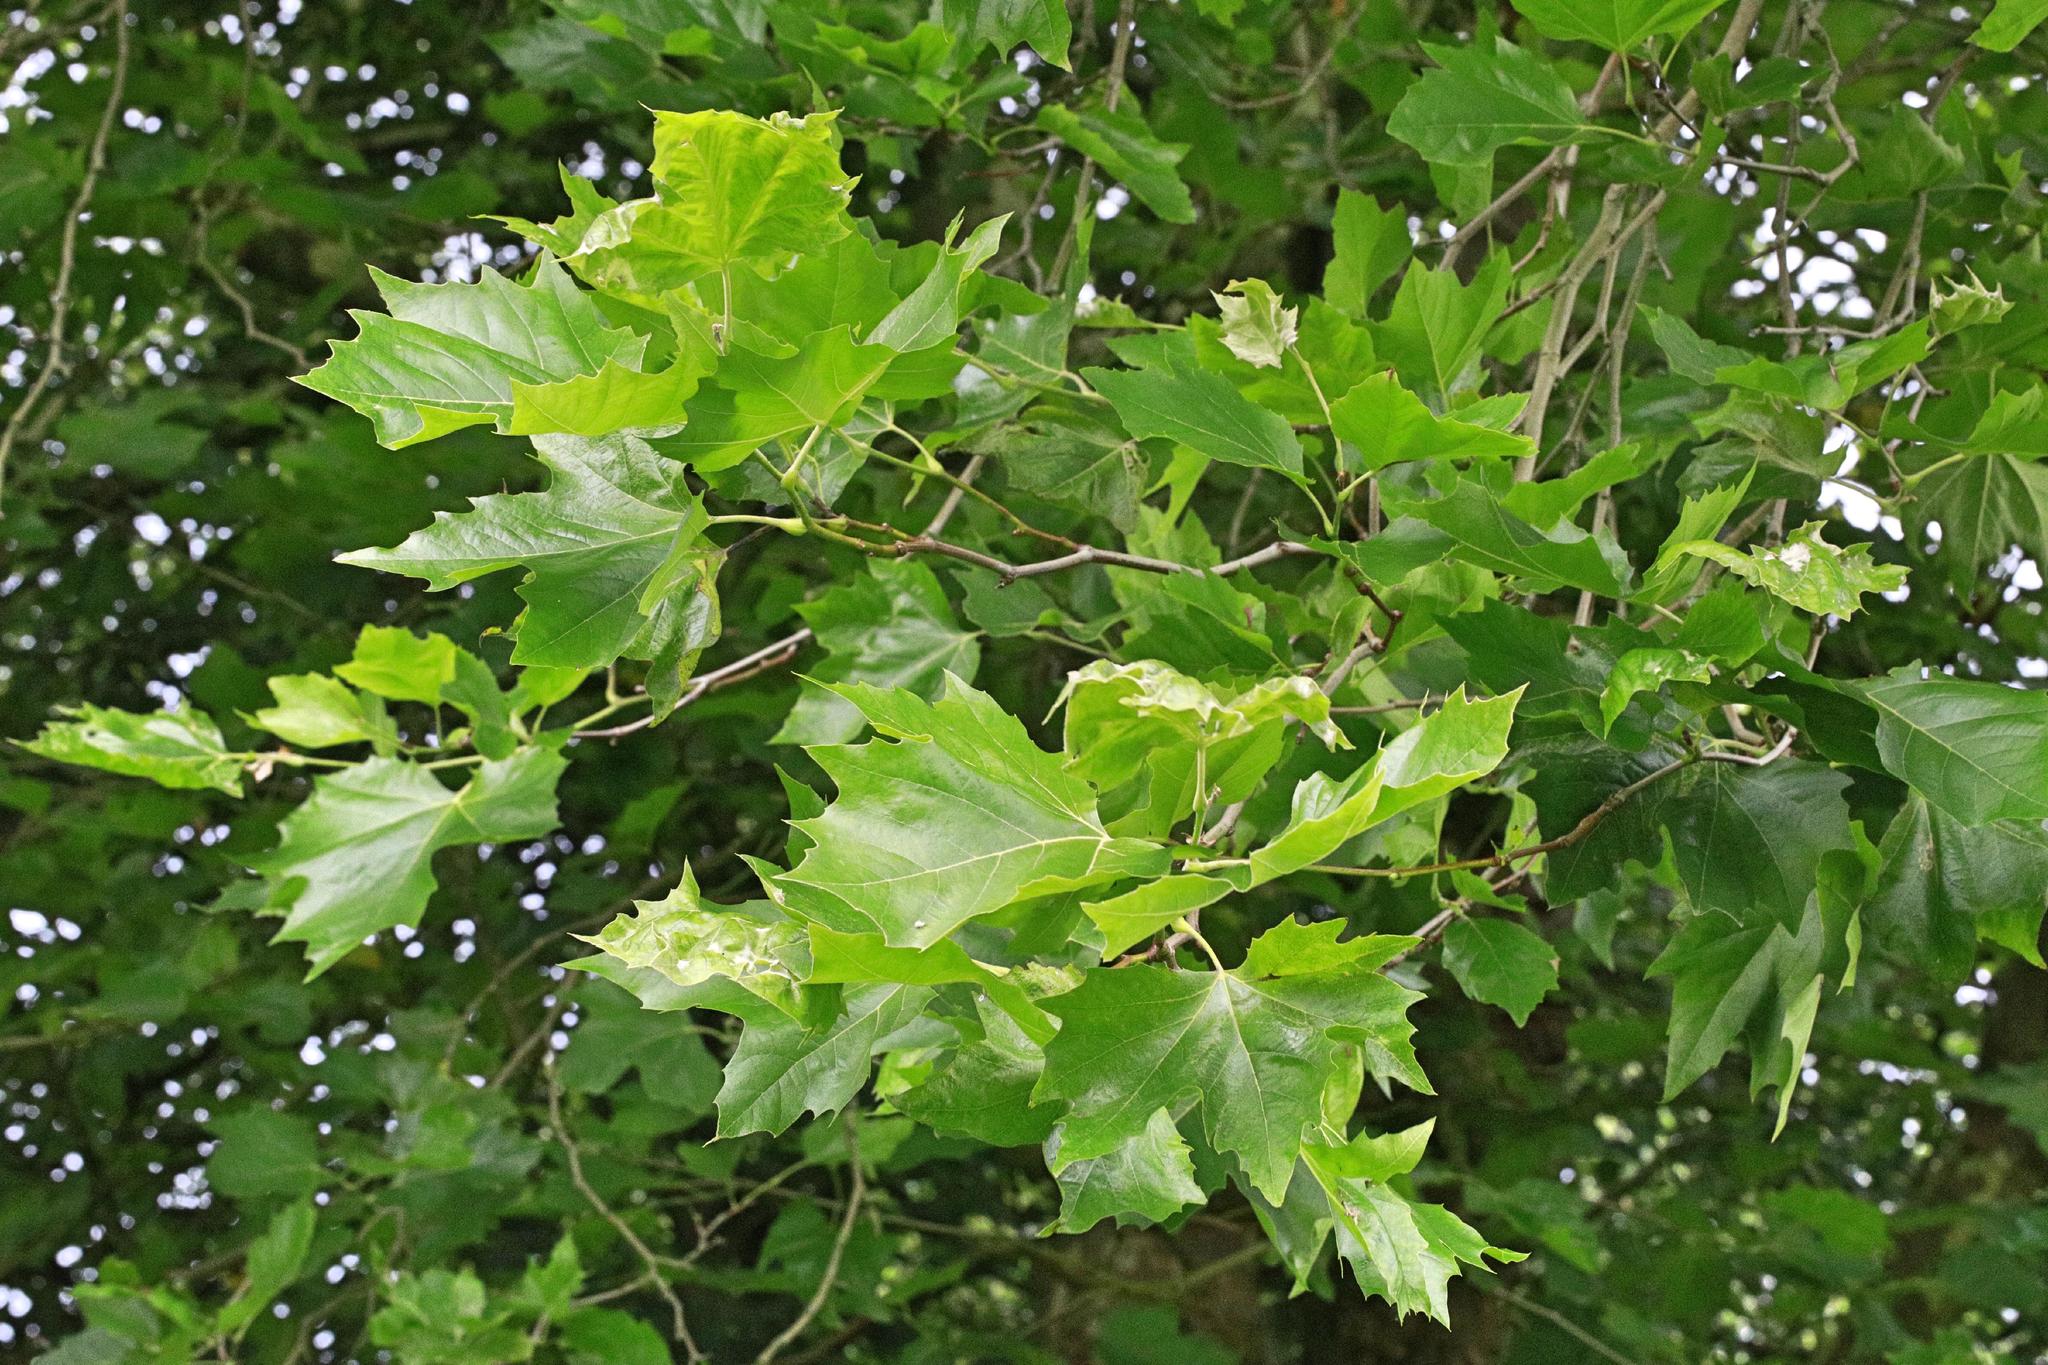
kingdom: Plantae
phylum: Tracheophyta
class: Magnoliopsida
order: Proteales
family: Platanaceae
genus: Platanus
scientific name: Platanus hispanica
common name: London plane
